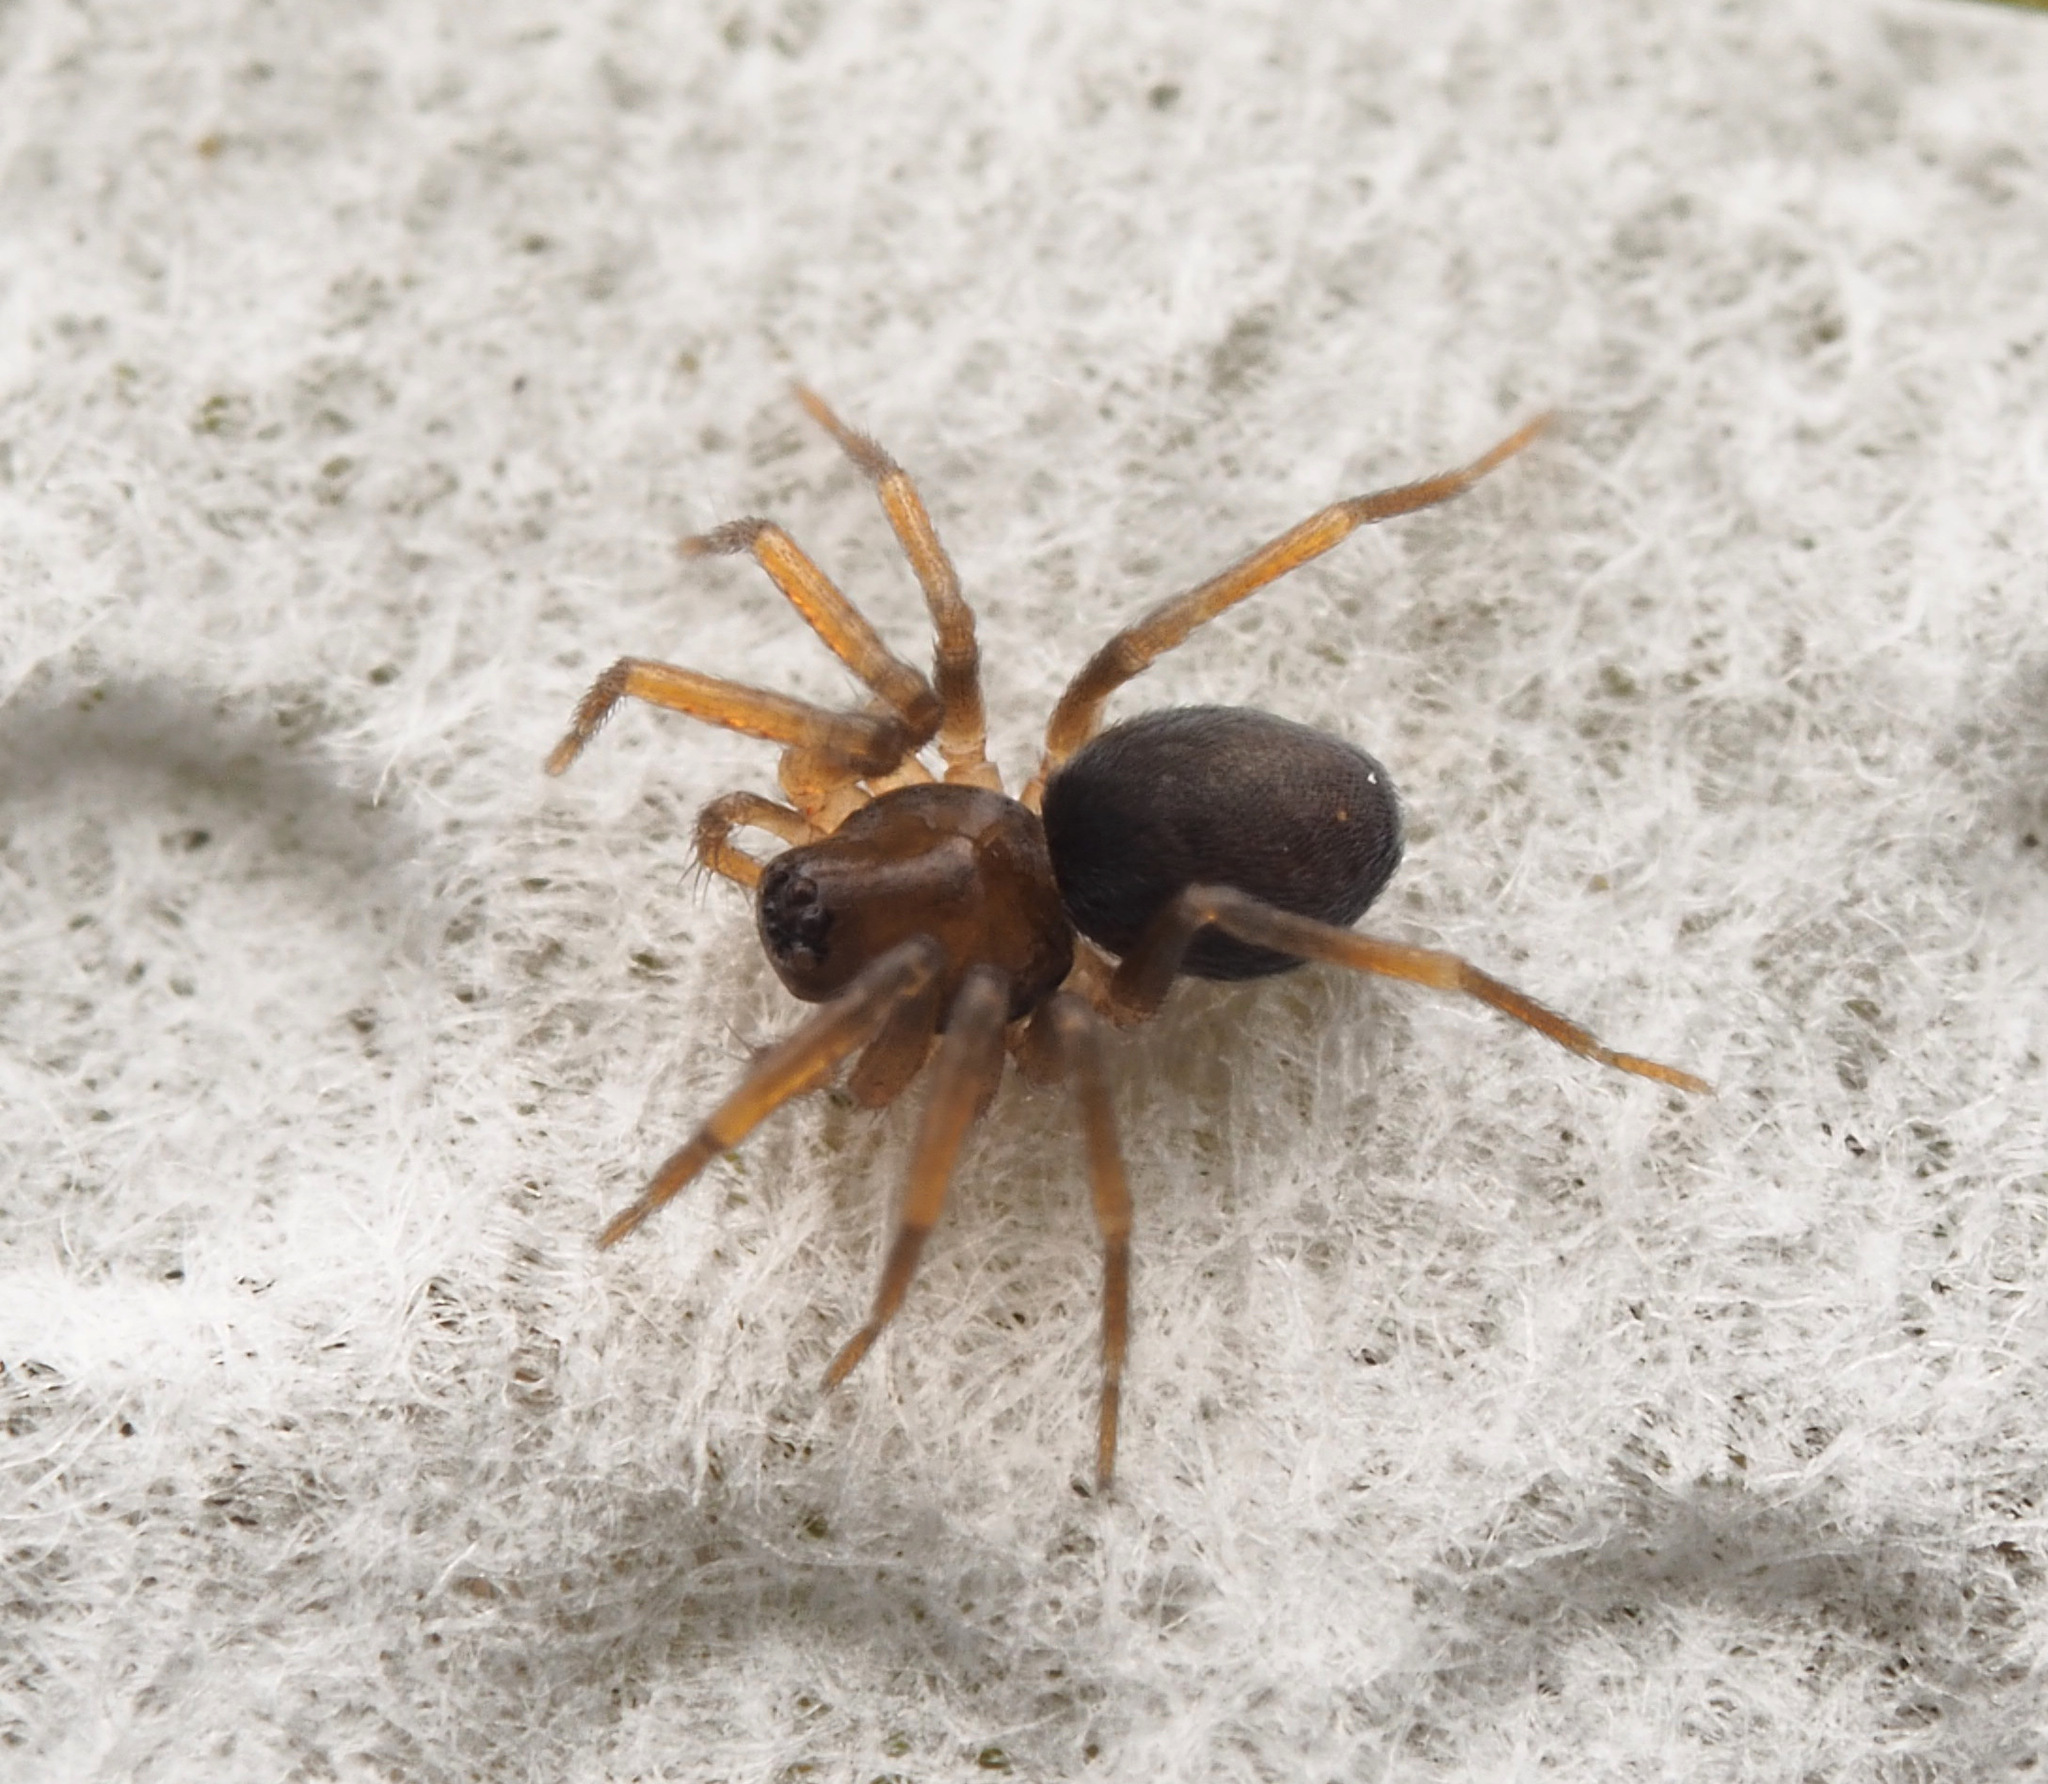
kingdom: Animalia
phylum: Arthropoda
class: Arachnida
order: Araneae
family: Toxopidae
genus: Midgee
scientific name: Midgee
